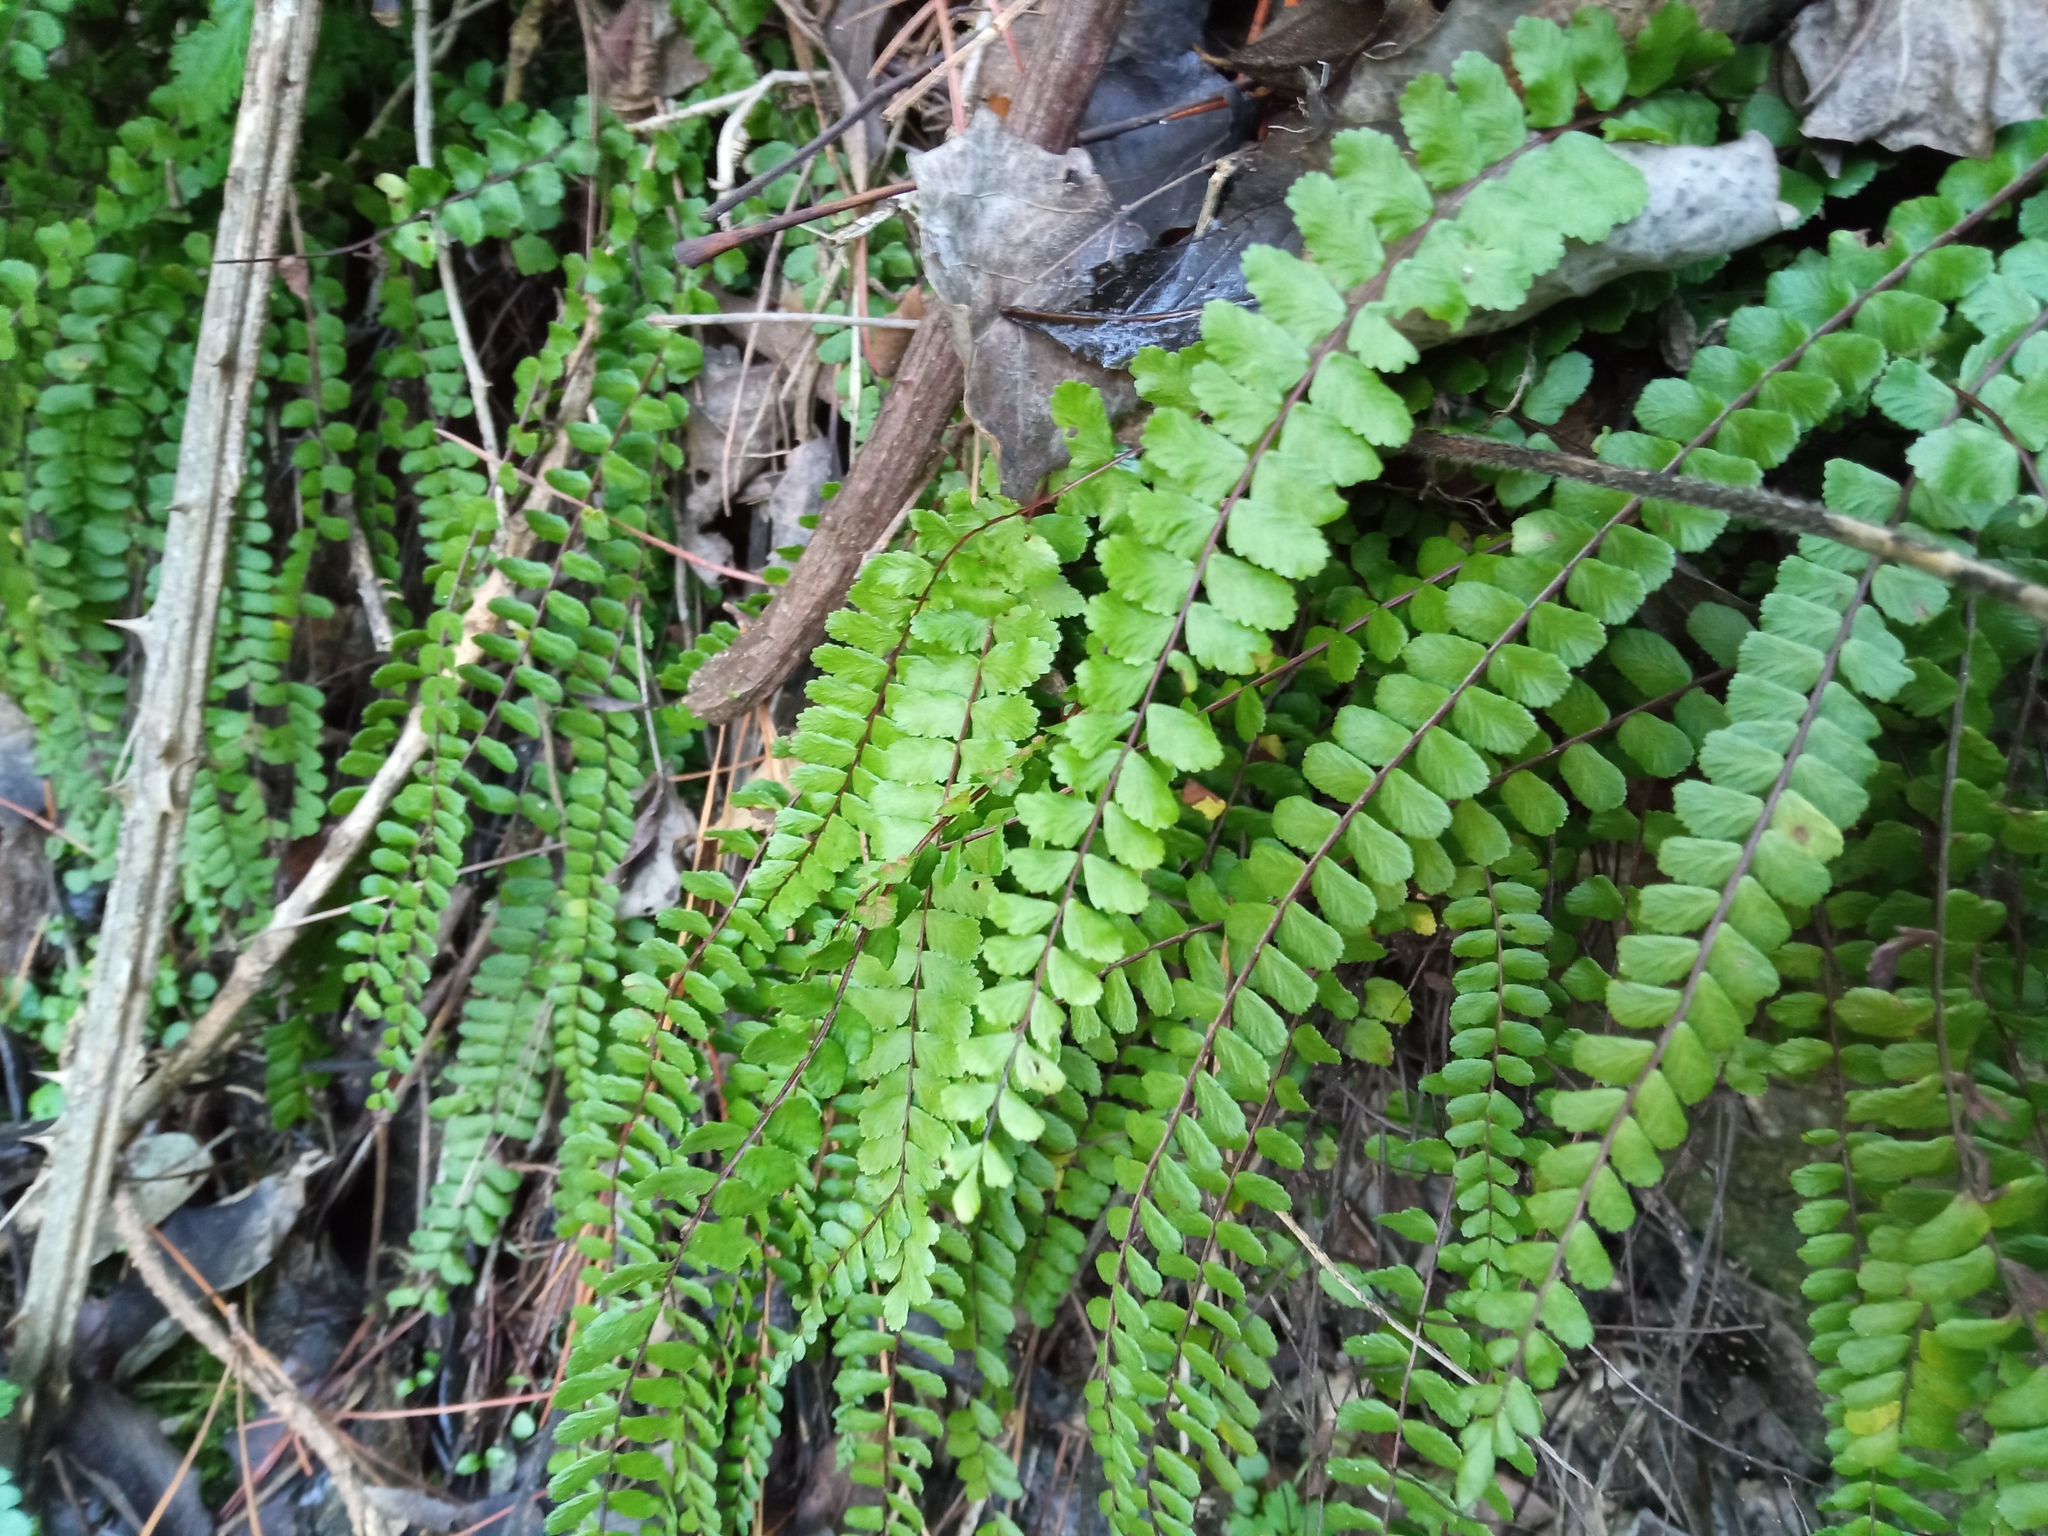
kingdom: Plantae
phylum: Tracheophyta
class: Polypodiopsida
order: Polypodiales
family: Aspleniaceae
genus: Asplenium
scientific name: Asplenium trichomanes
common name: Maidenhair spleenwort
